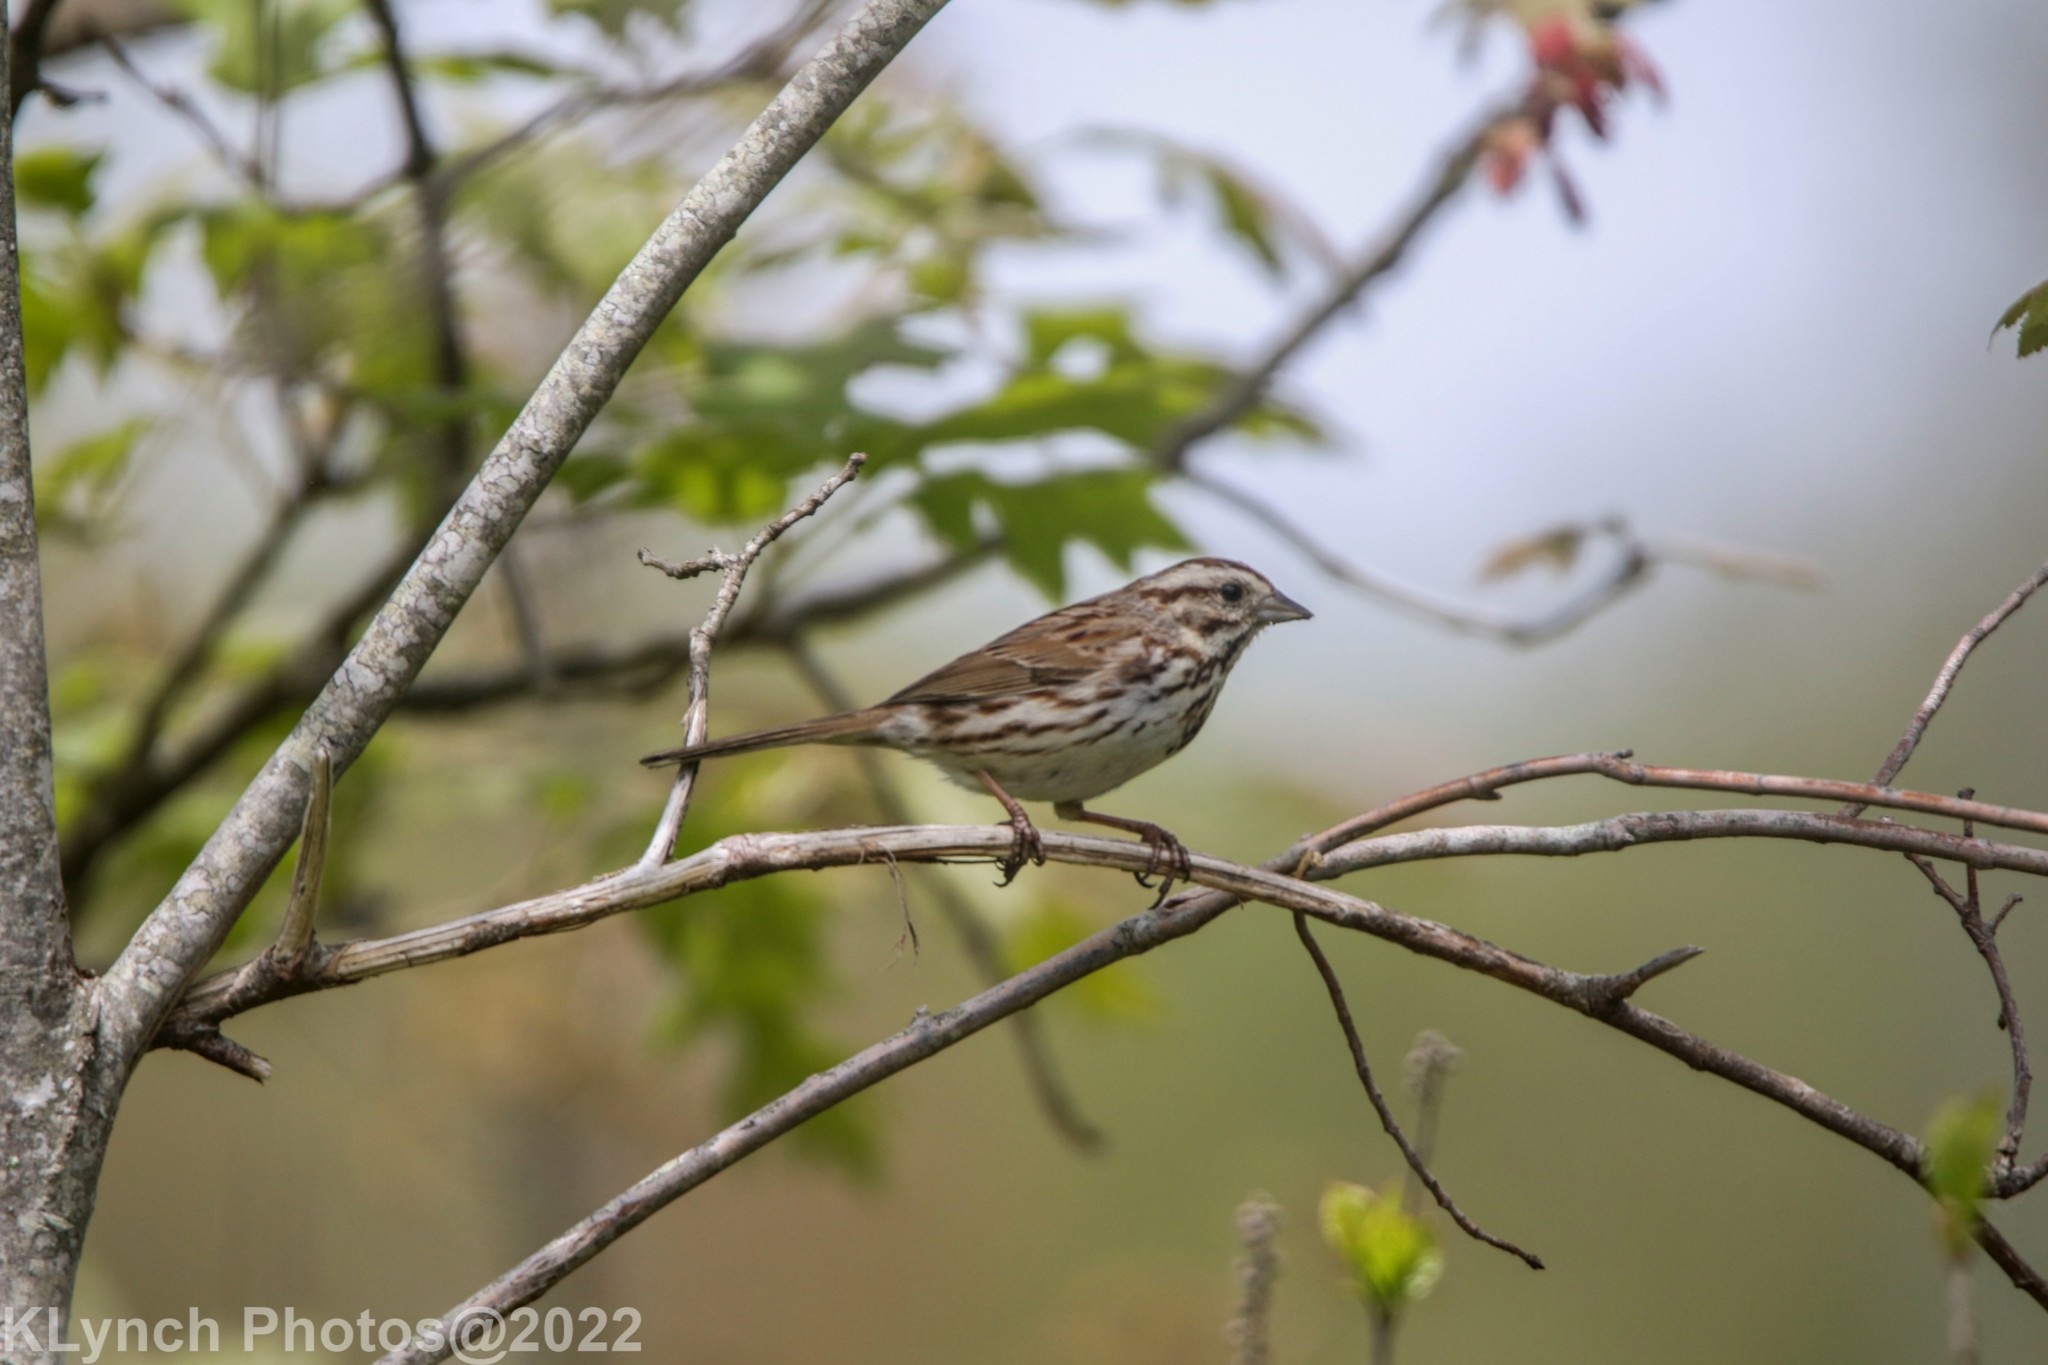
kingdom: Animalia
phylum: Chordata
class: Aves
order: Passeriformes
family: Passerellidae
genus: Melospiza
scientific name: Melospiza melodia
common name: Song sparrow
